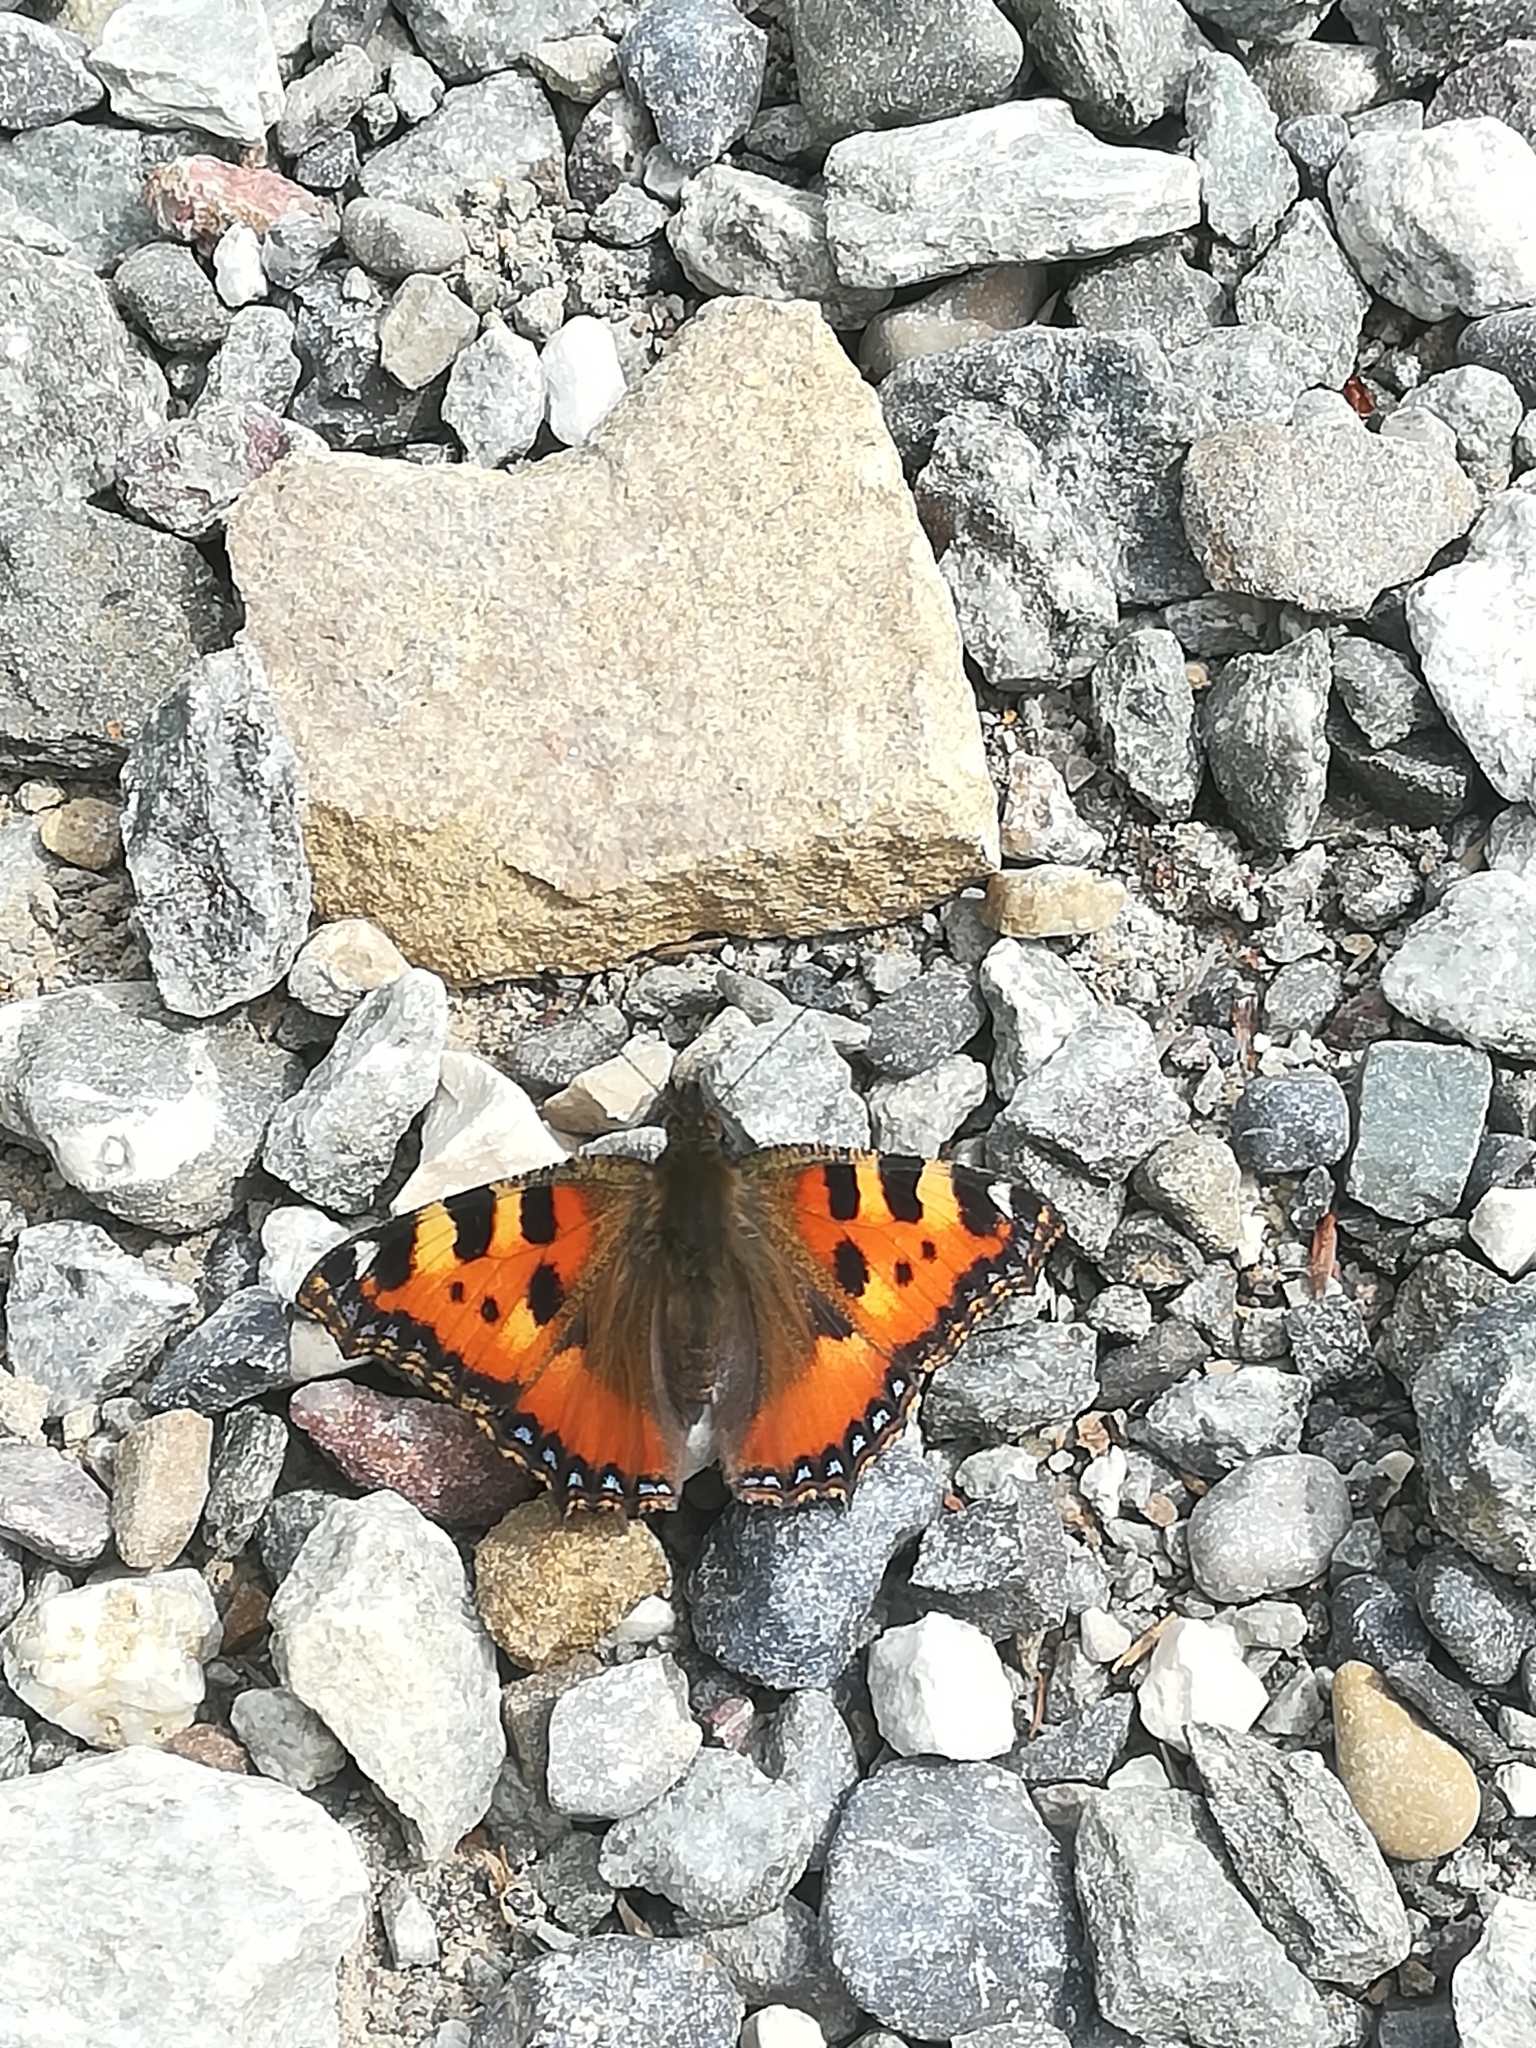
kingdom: Animalia
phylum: Arthropoda
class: Insecta
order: Lepidoptera
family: Nymphalidae
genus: Aglais
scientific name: Aglais urticae
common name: Small tortoiseshell
